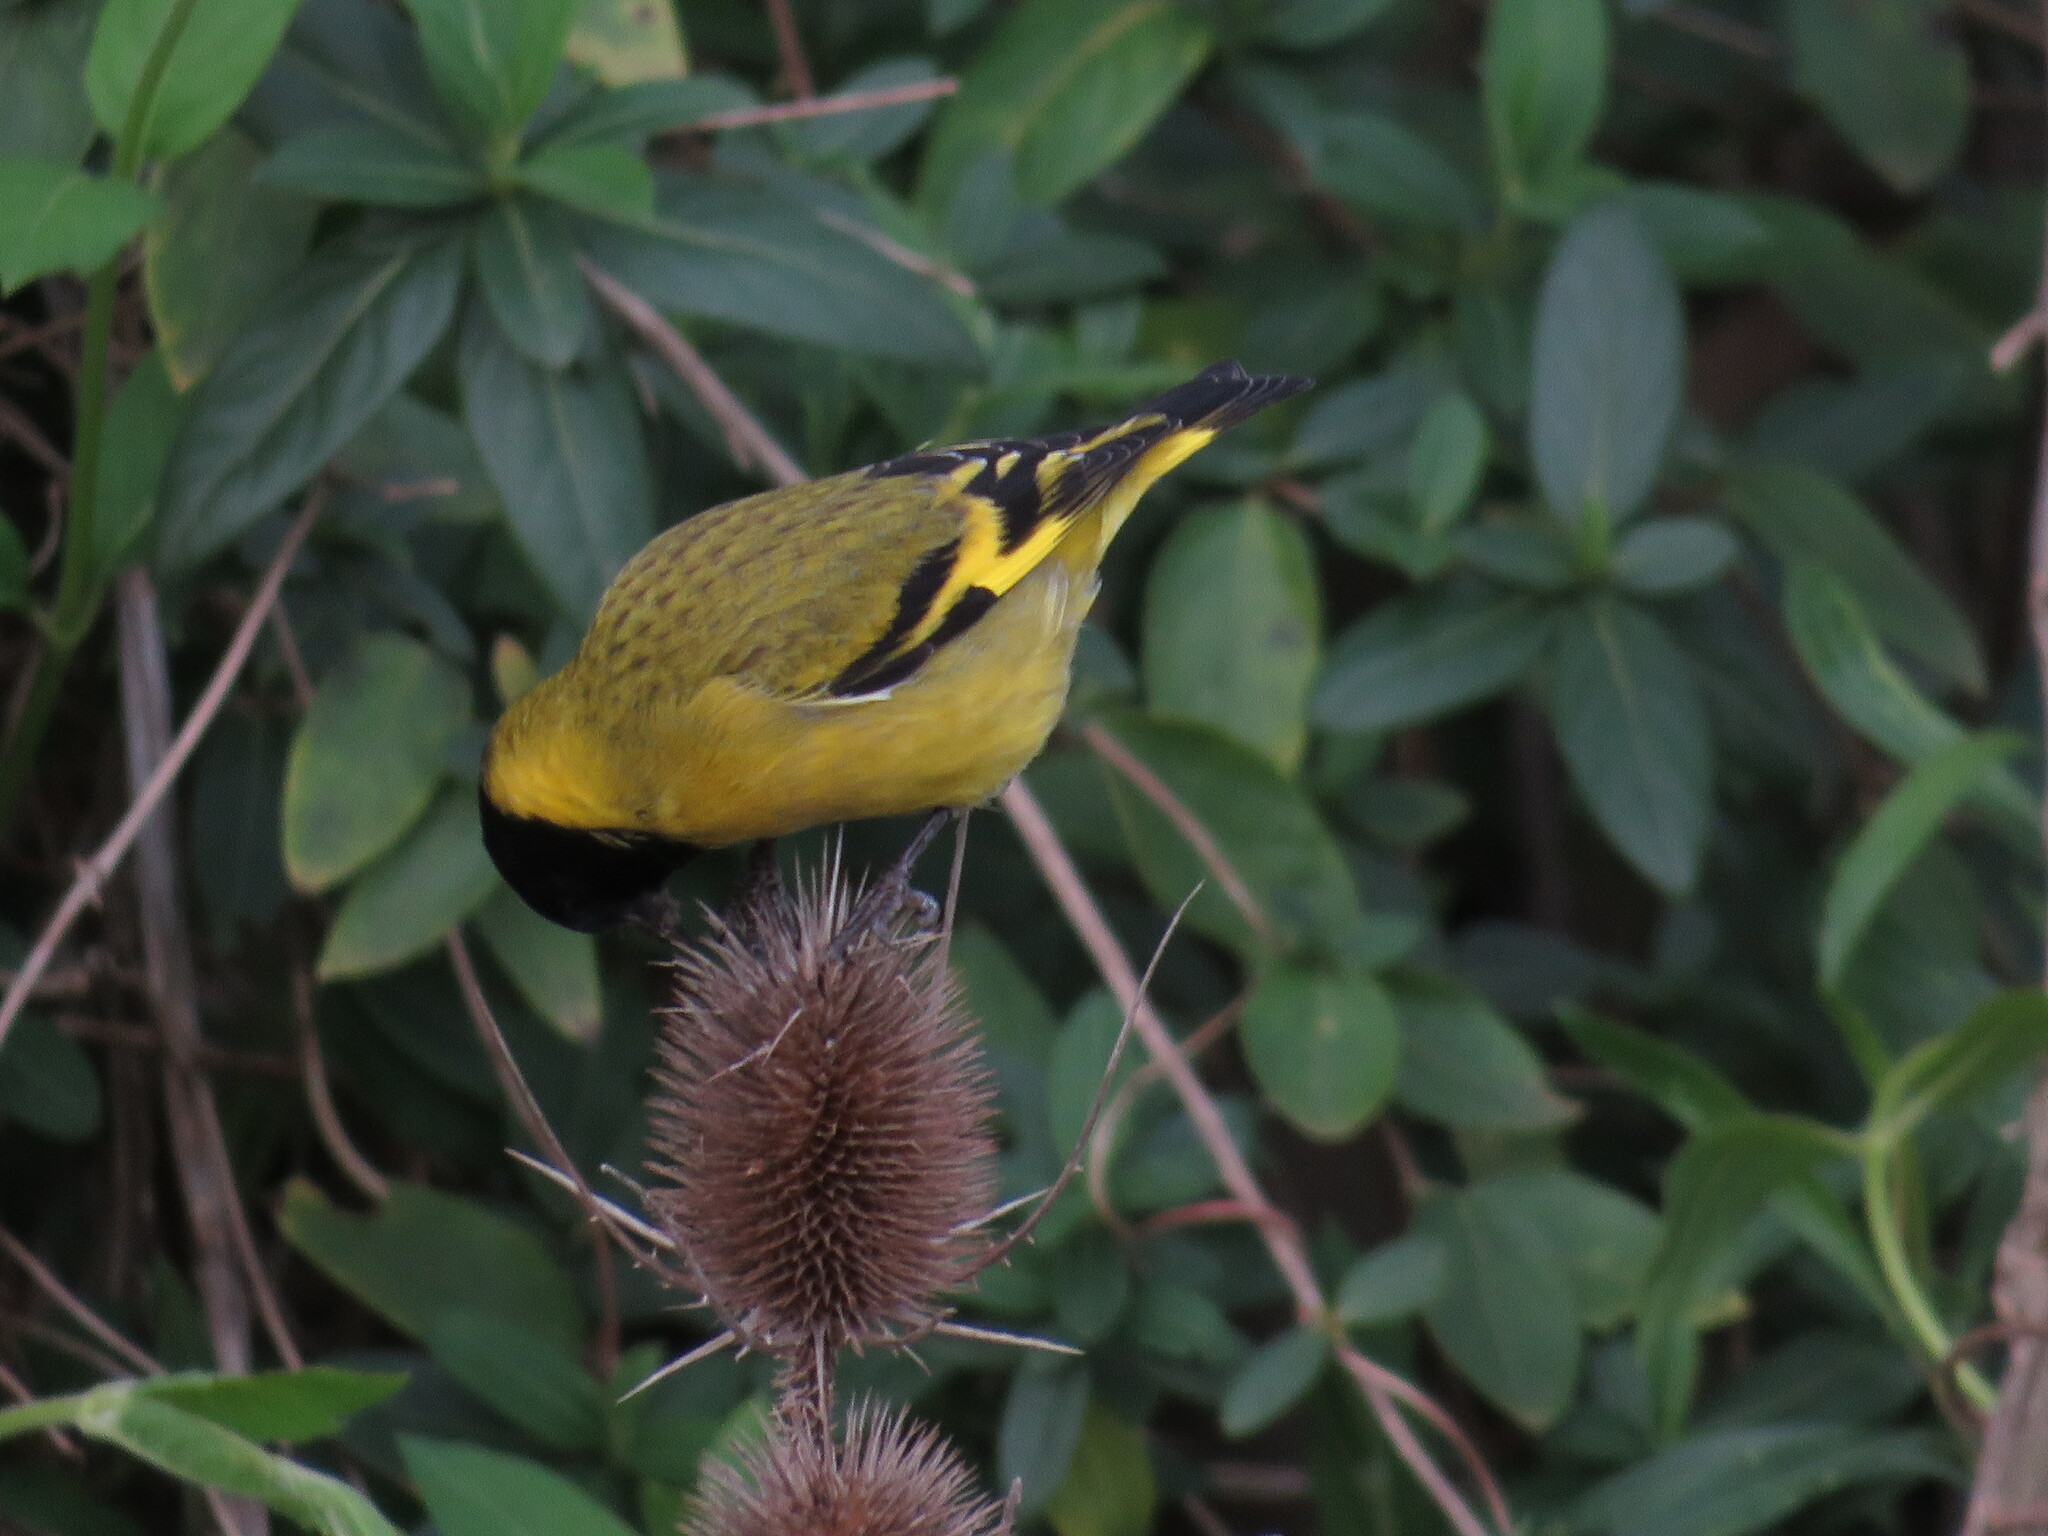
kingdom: Animalia
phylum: Chordata
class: Aves
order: Passeriformes
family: Fringillidae
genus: Spinus
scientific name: Spinus magellanicus
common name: Hooded siskin
